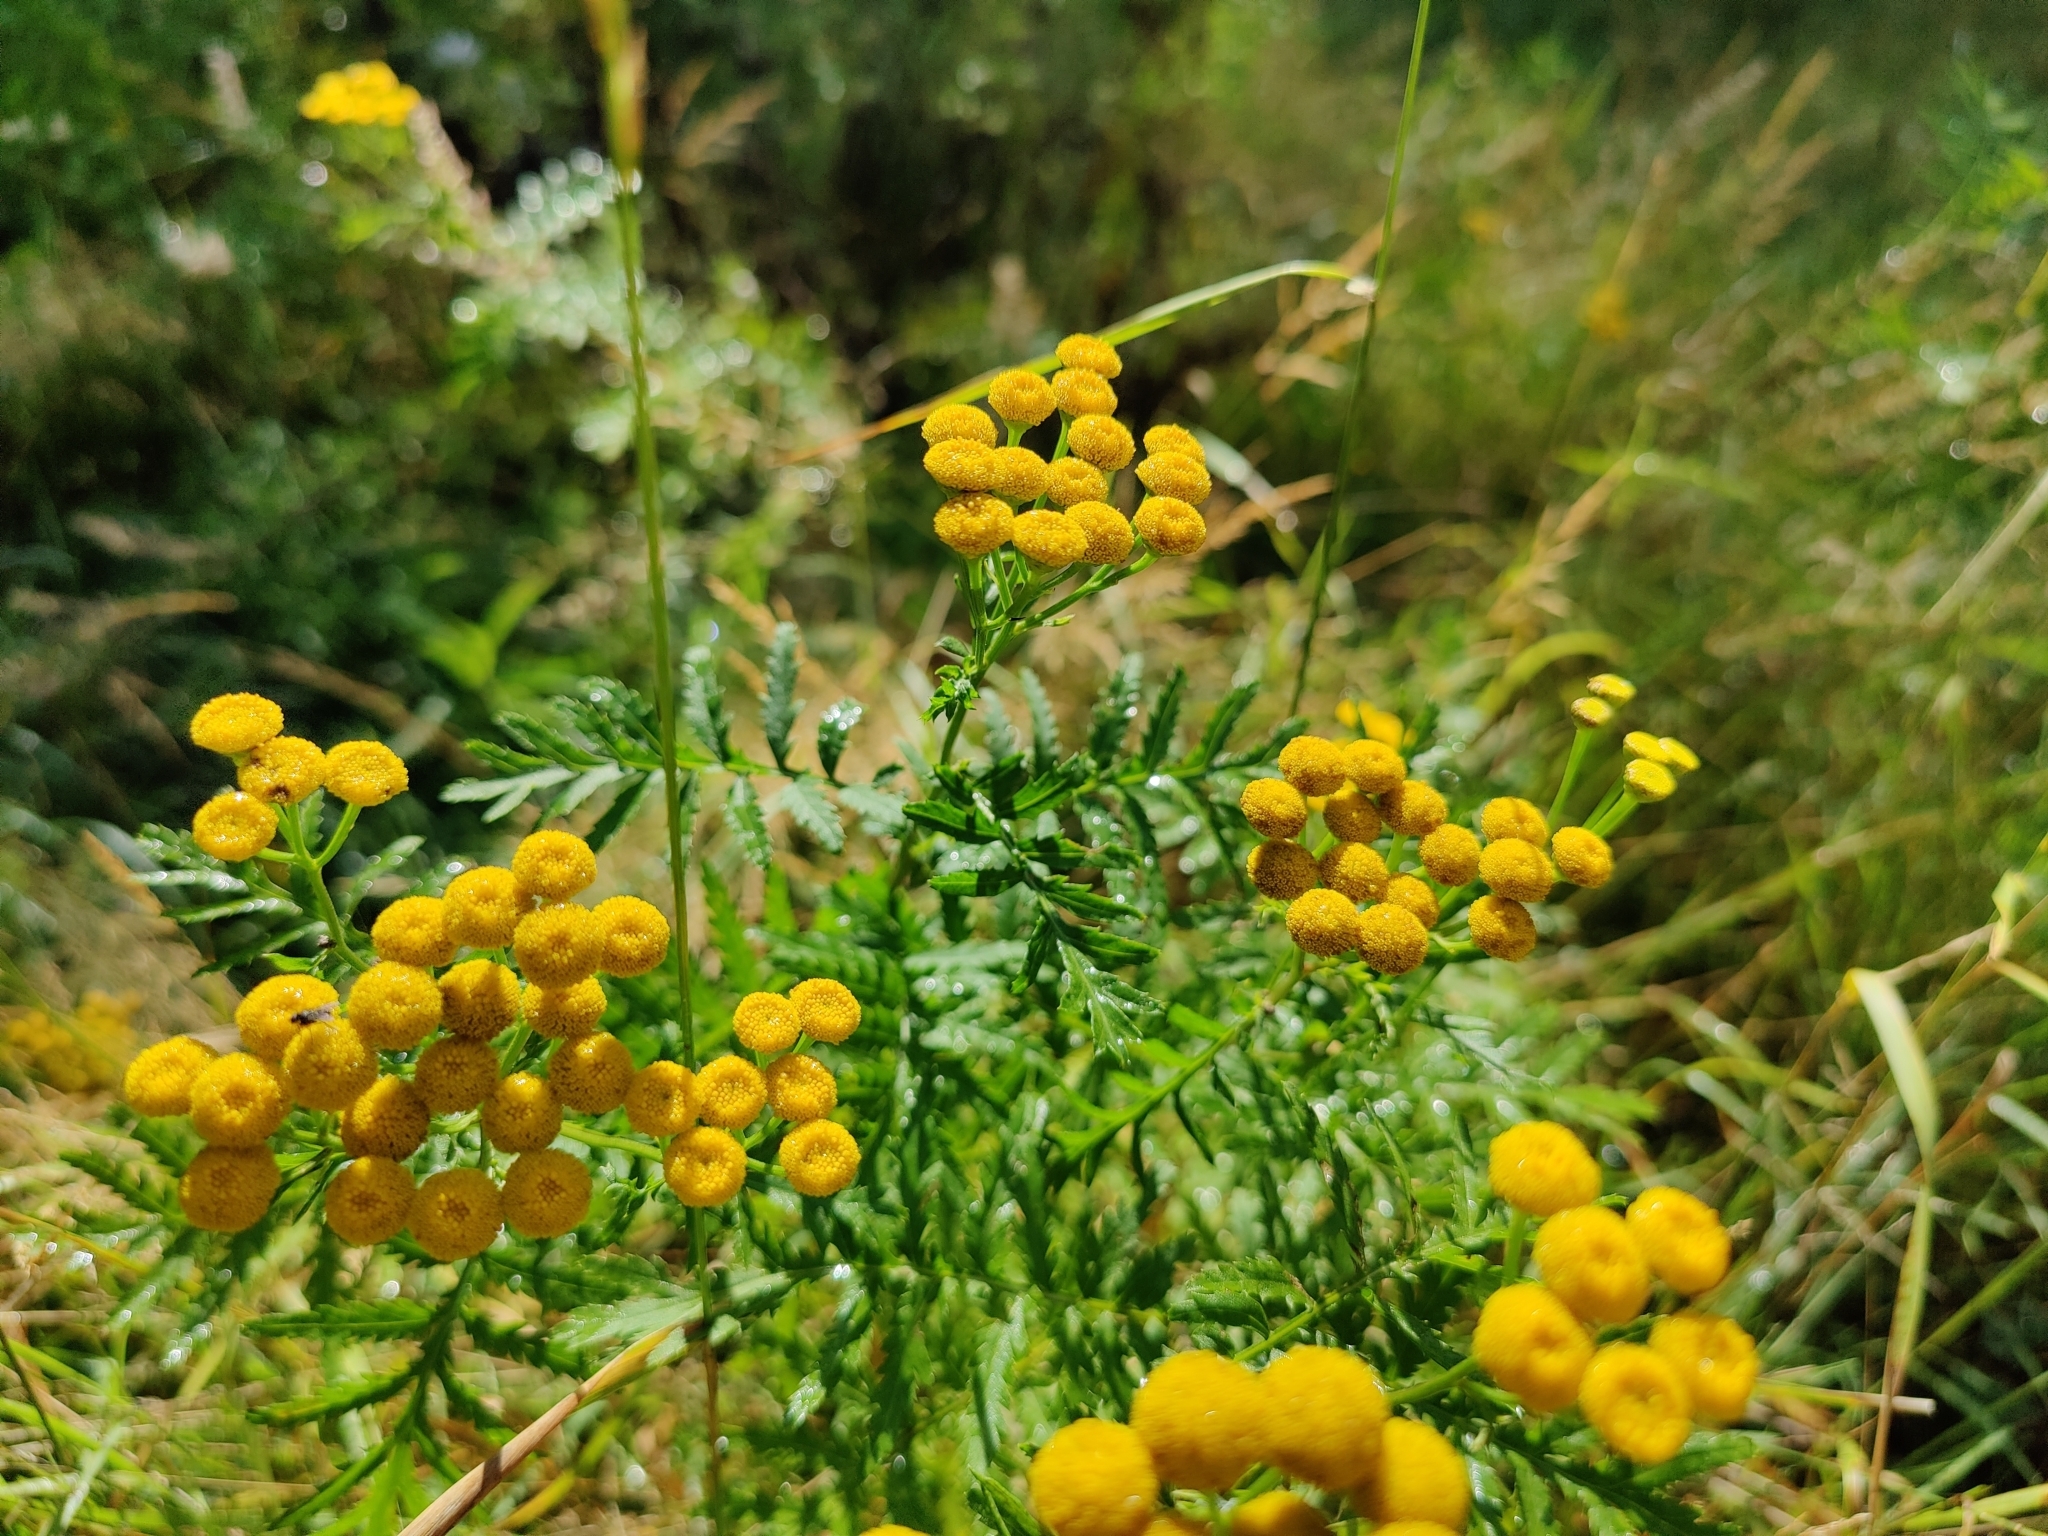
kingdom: Plantae
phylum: Tracheophyta
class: Magnoliopsida
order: Asterales
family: Asteraceae
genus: Tanacetum
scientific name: Tanacetum vulgare
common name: Common tansy
